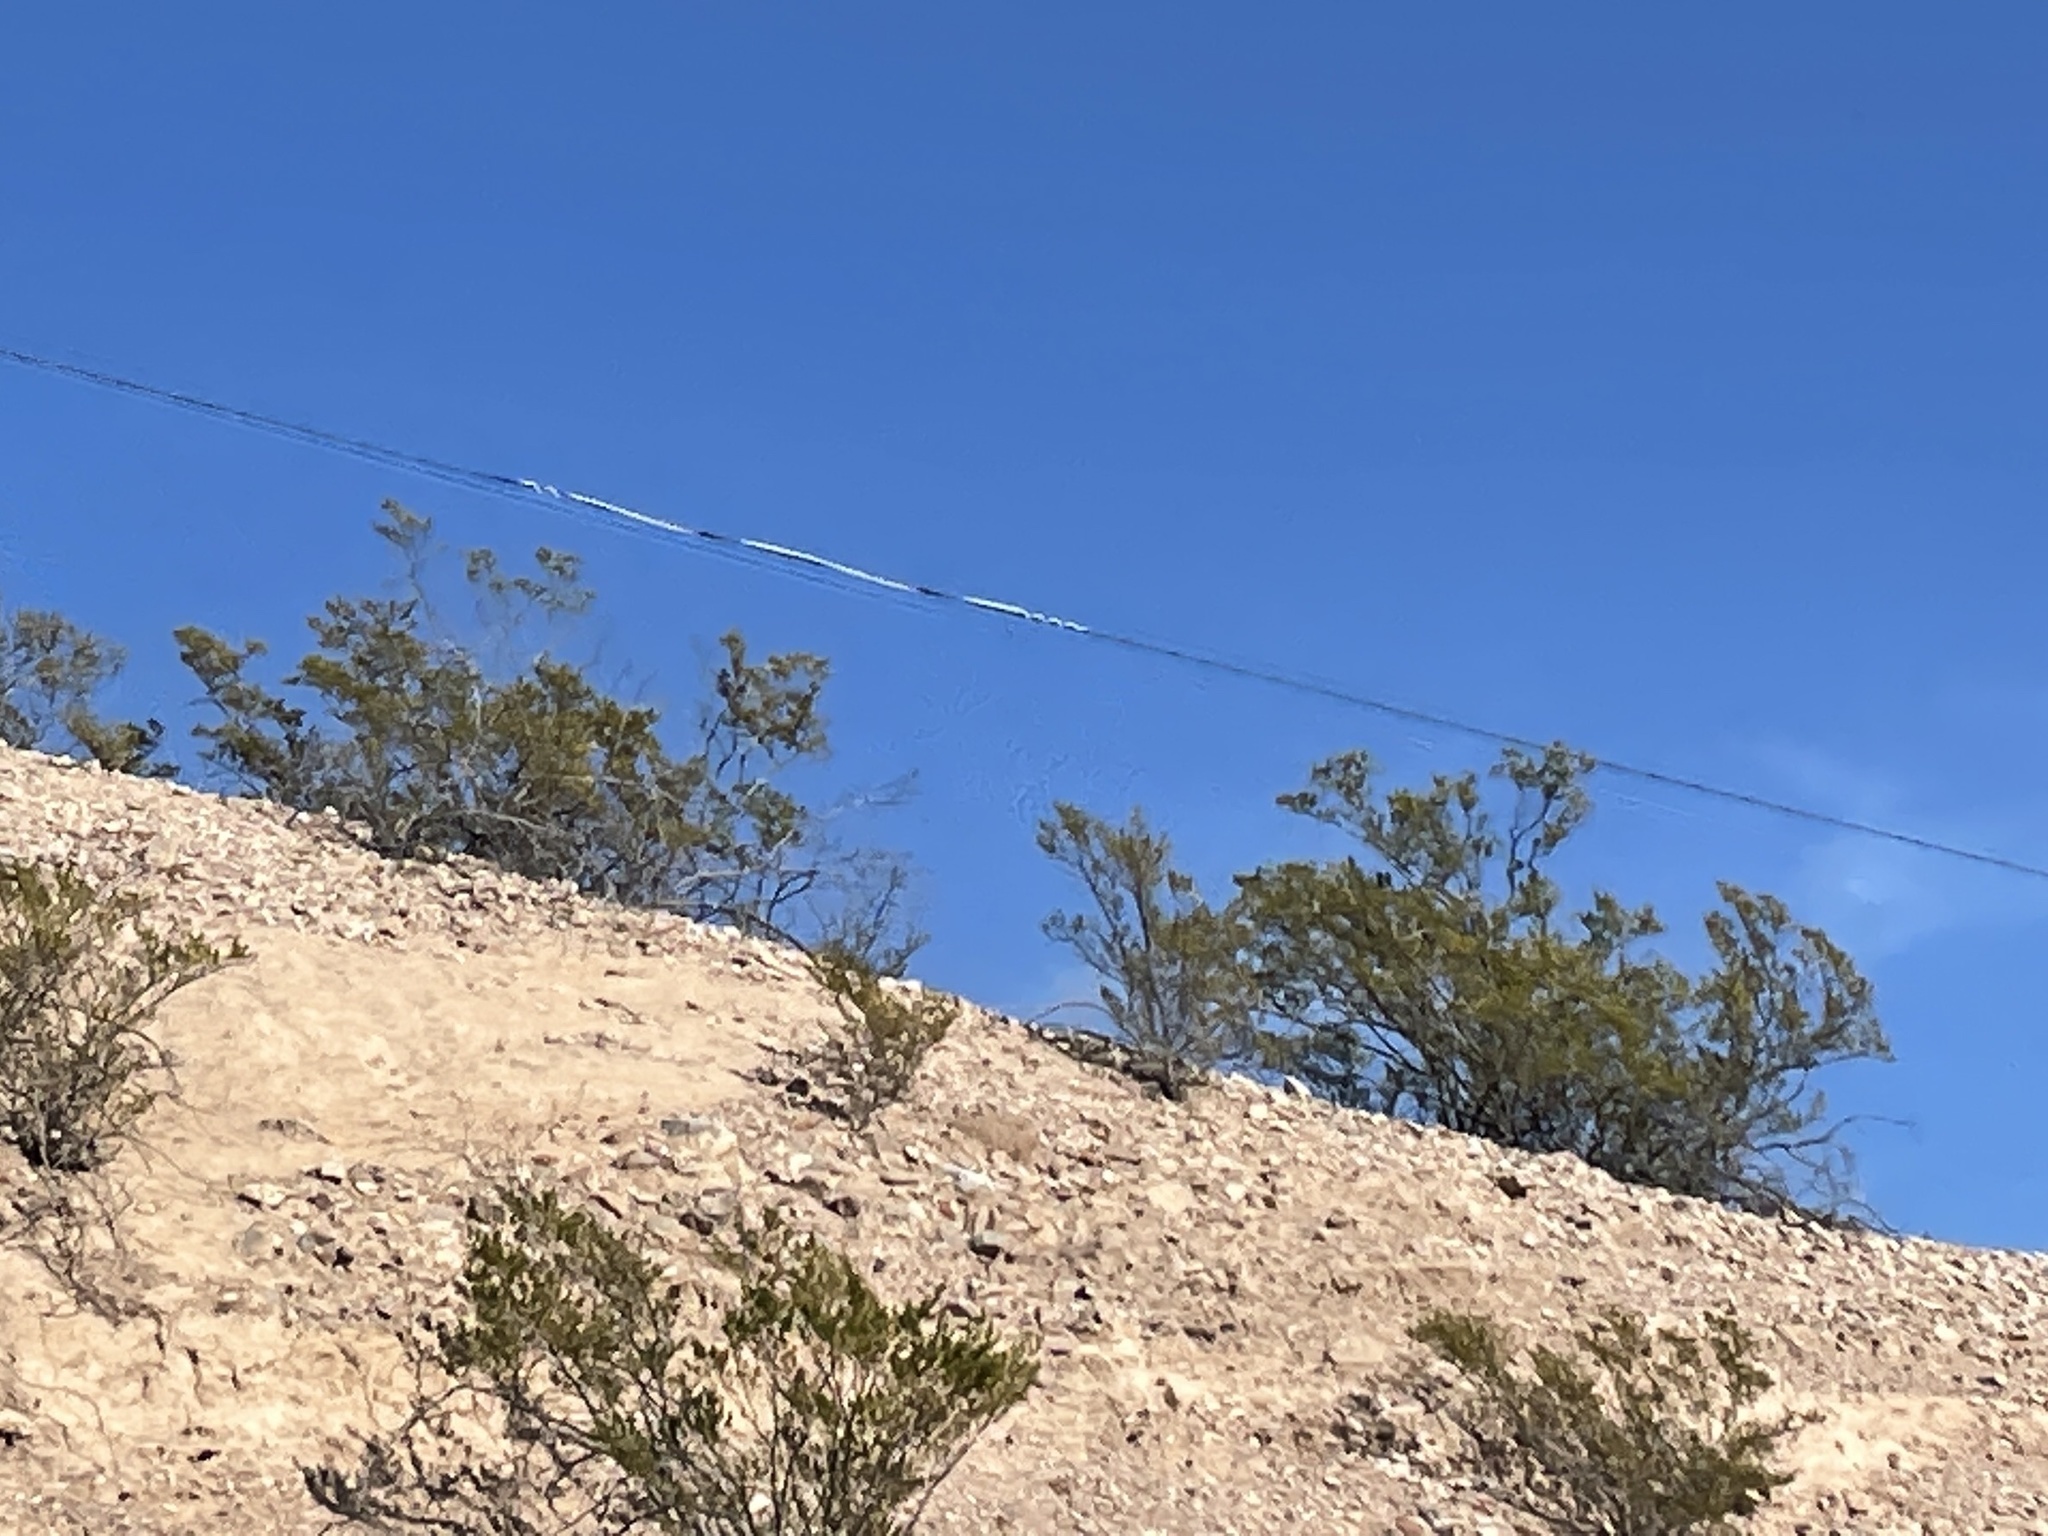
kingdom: Plantae
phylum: Tracheophyta
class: Magnoliopsida
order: Zygophyllales
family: Zygophyllaceae
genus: Larrea
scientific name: Larrea tridentata
